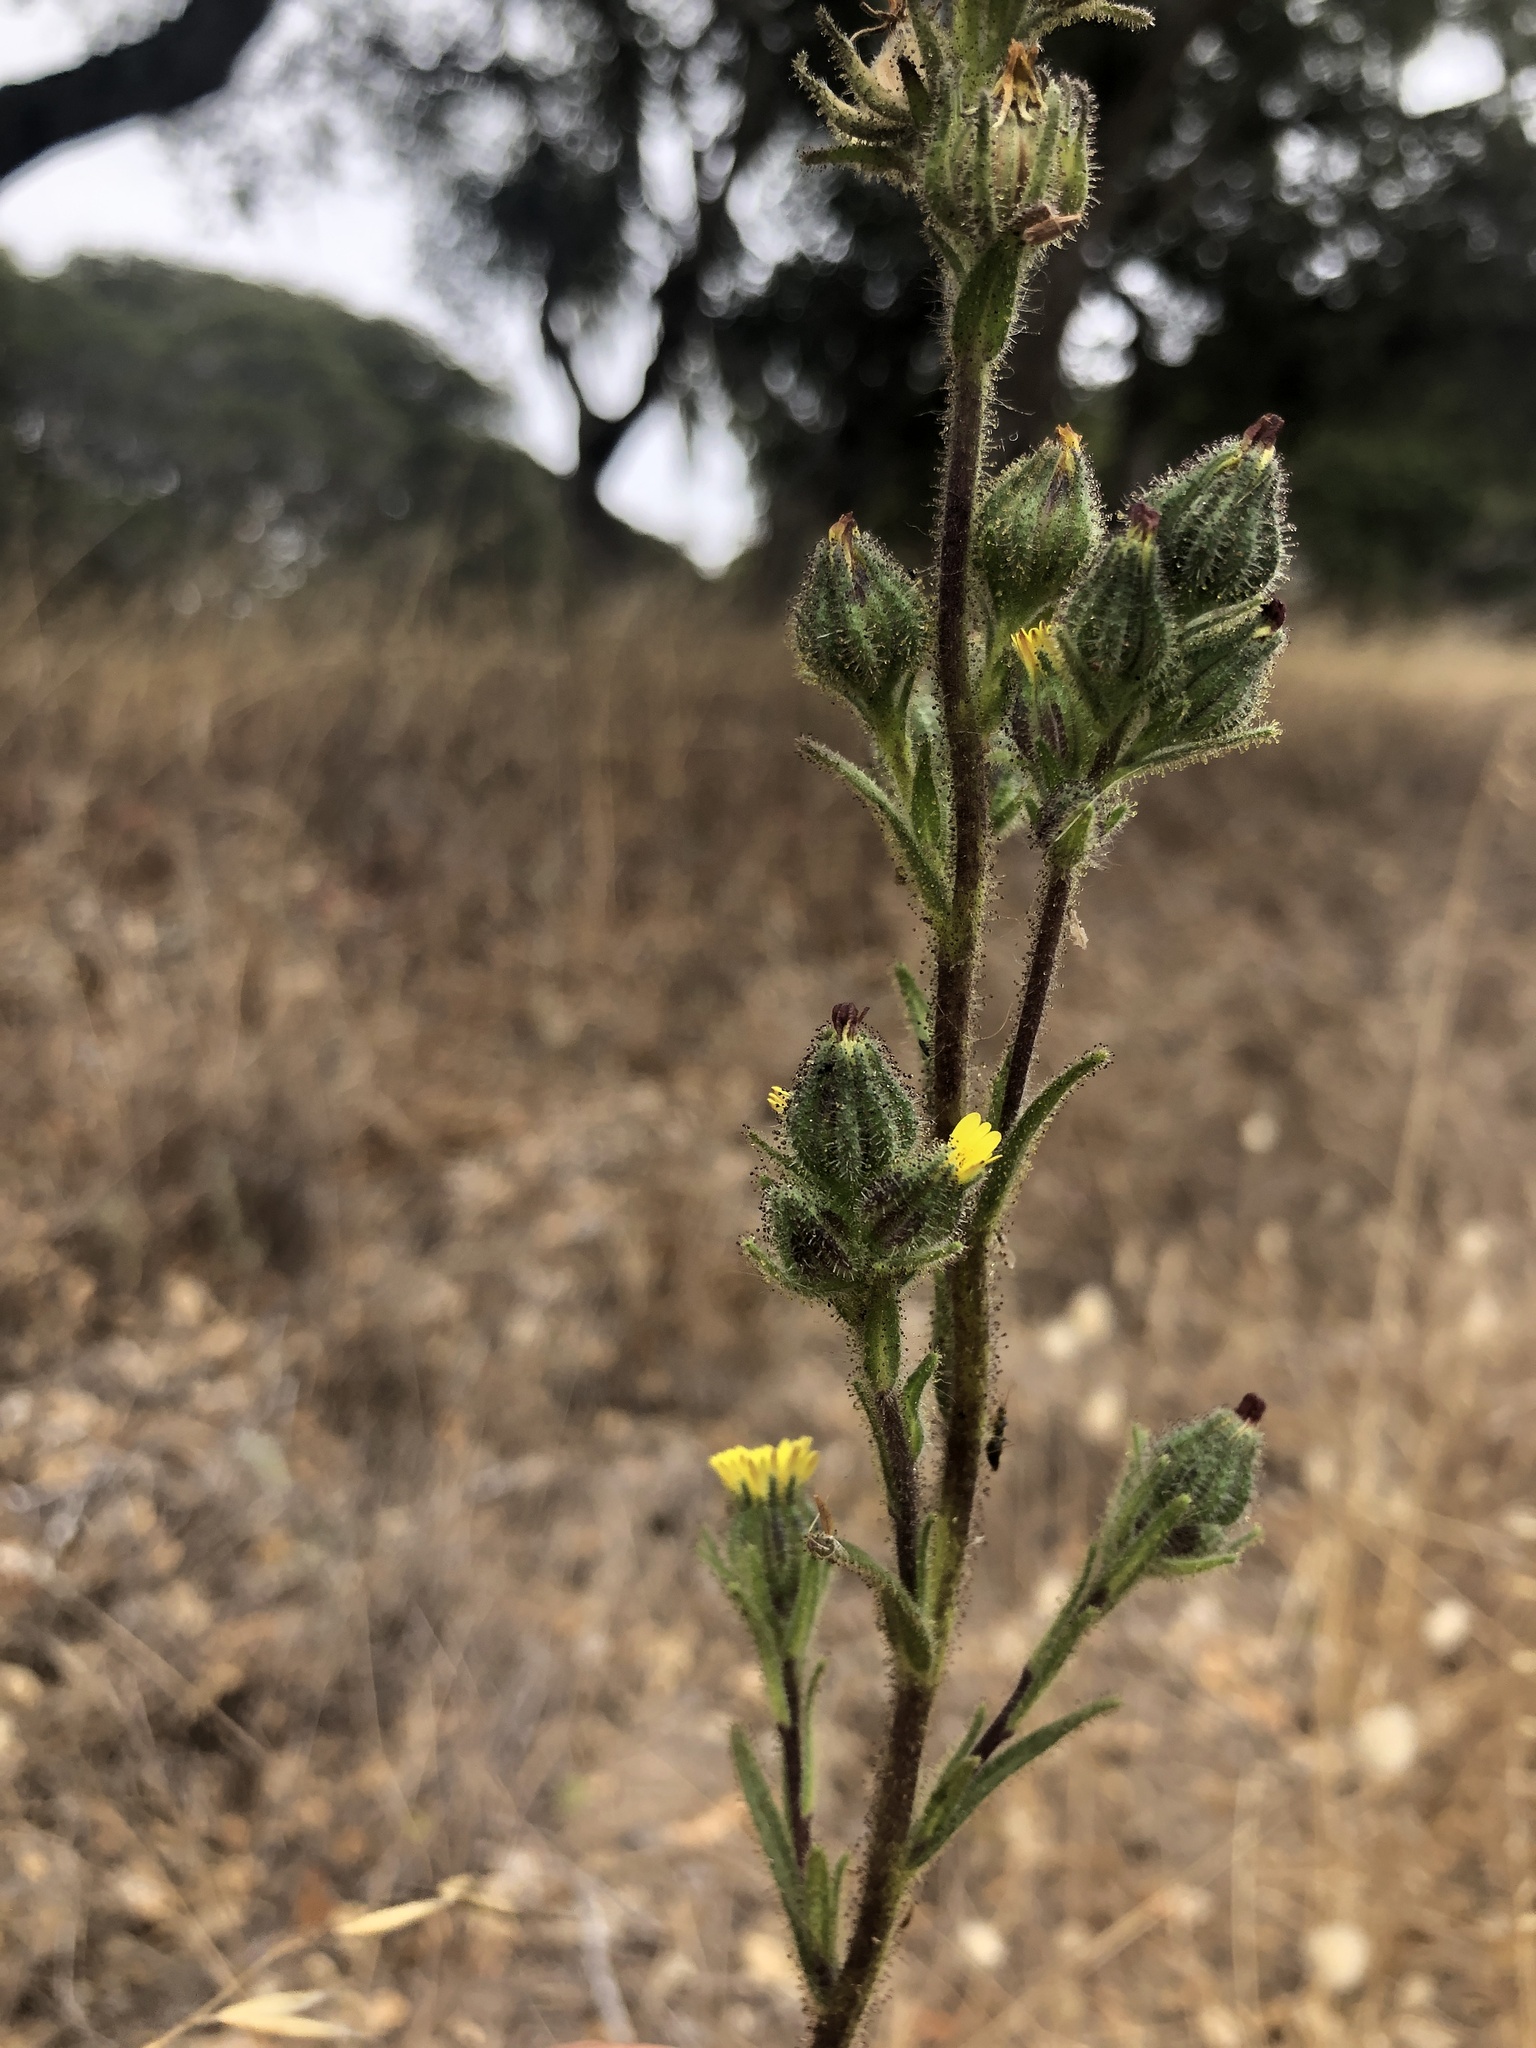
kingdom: Plantae
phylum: Tracheophyta
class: Magnoliopsida
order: Asterales
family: Asteraceae
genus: Madia
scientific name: Madia sativa
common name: Coast tarweed
